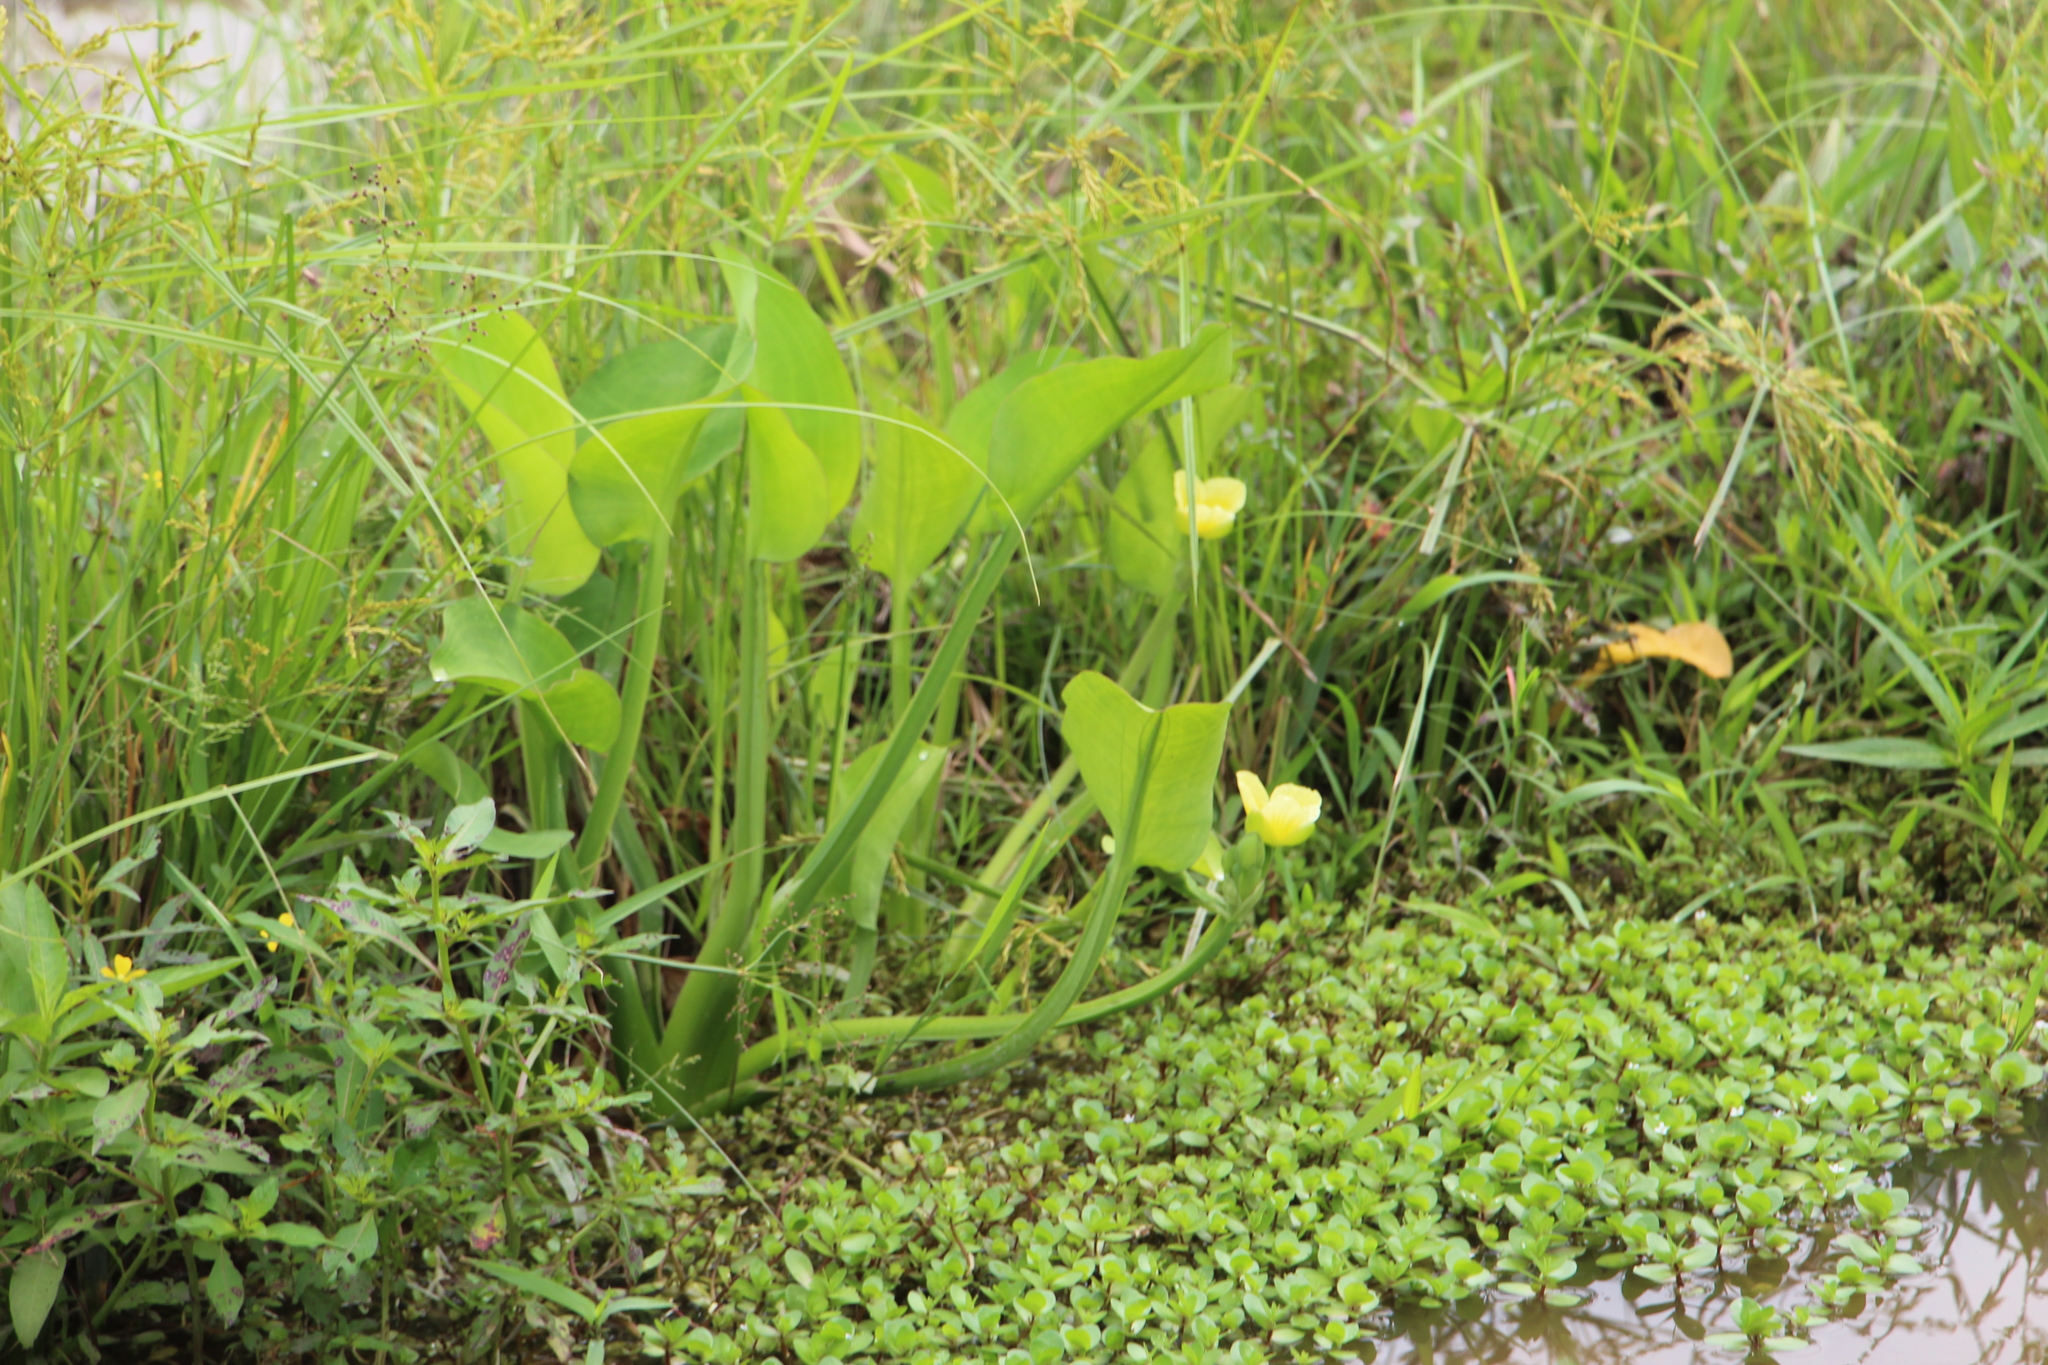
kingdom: Plantae
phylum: Tracheophyta
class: Liliopsida
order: Alismatales
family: Alismataceae
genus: Limnocharis
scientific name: Limnocharis flava
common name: Sawah-flower-rush
